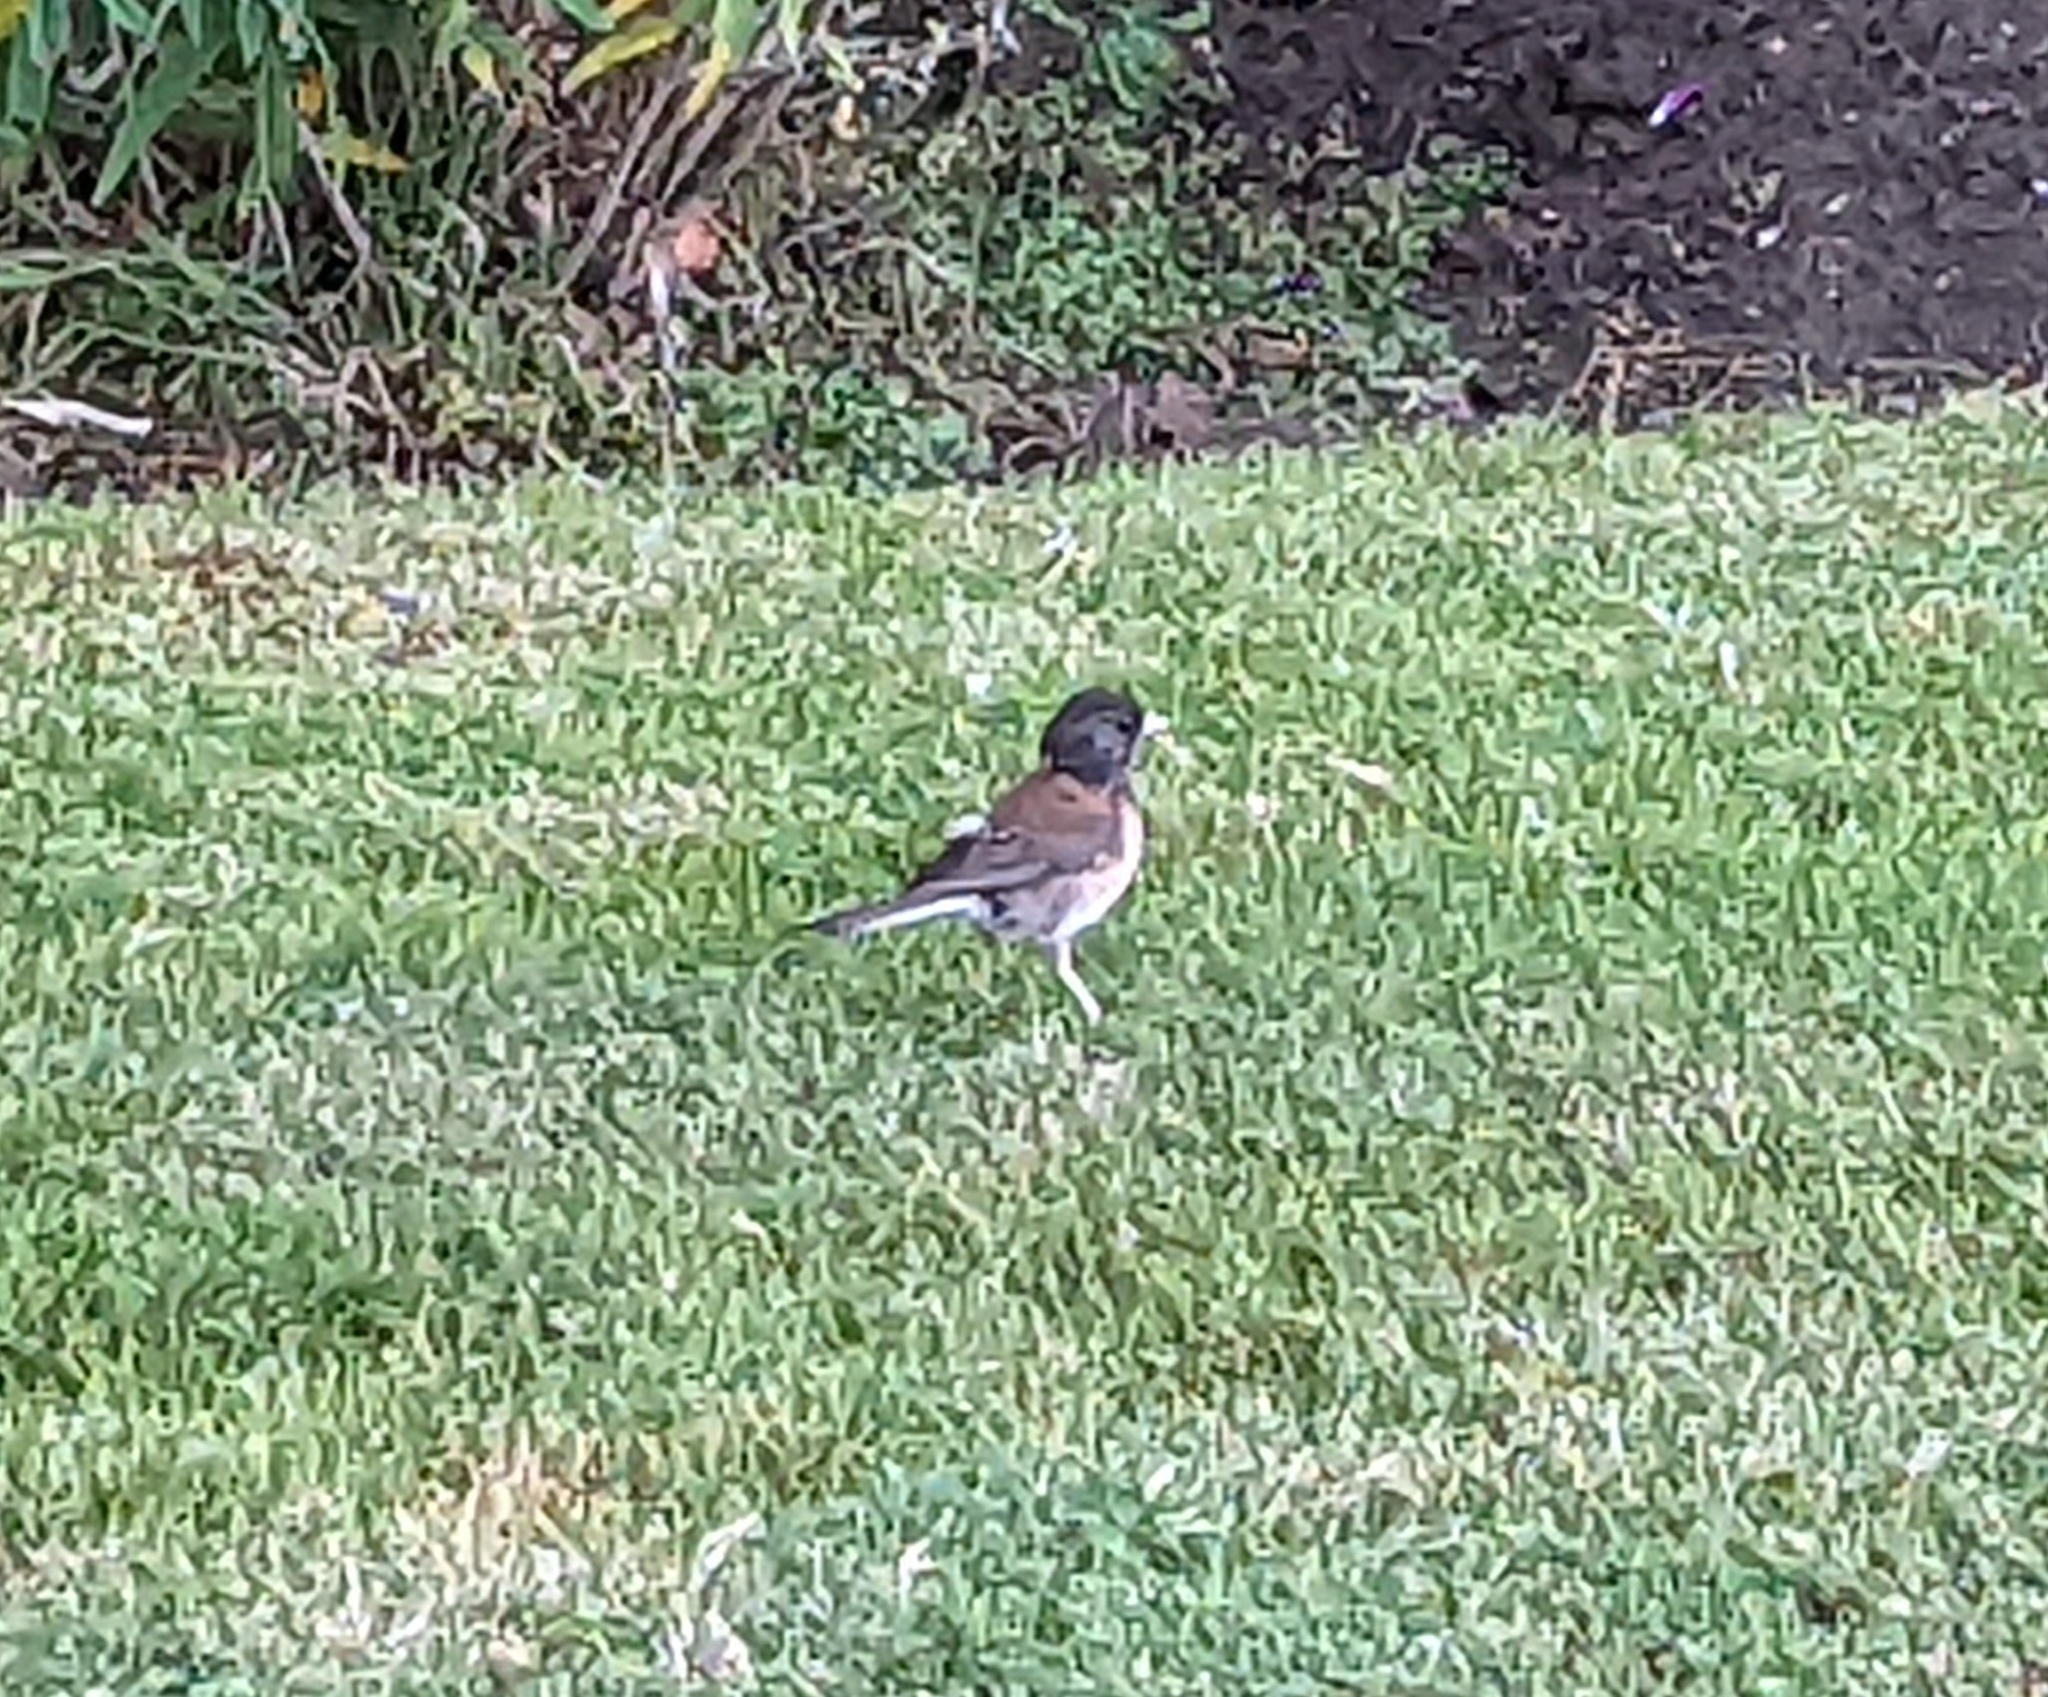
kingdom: Animalia
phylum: Chordata
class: Aves
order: Passeriformes
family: Passerellidae
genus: Junco
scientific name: Junco hyemalis
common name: Dark-eyed junco
